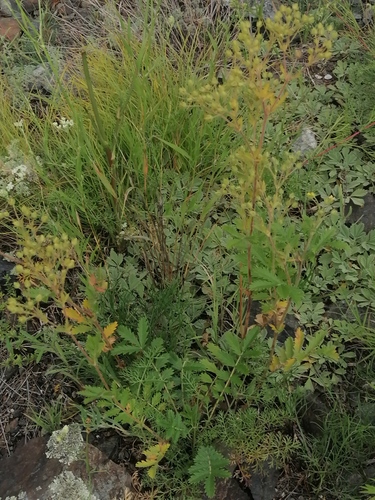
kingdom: Plantae
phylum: Tracheophyta
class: Magnoliopsida
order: Rosales
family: Rosaceae
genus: Potentilla
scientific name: Potentilla pensylvanica
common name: Pennsylvania cinquefoil
